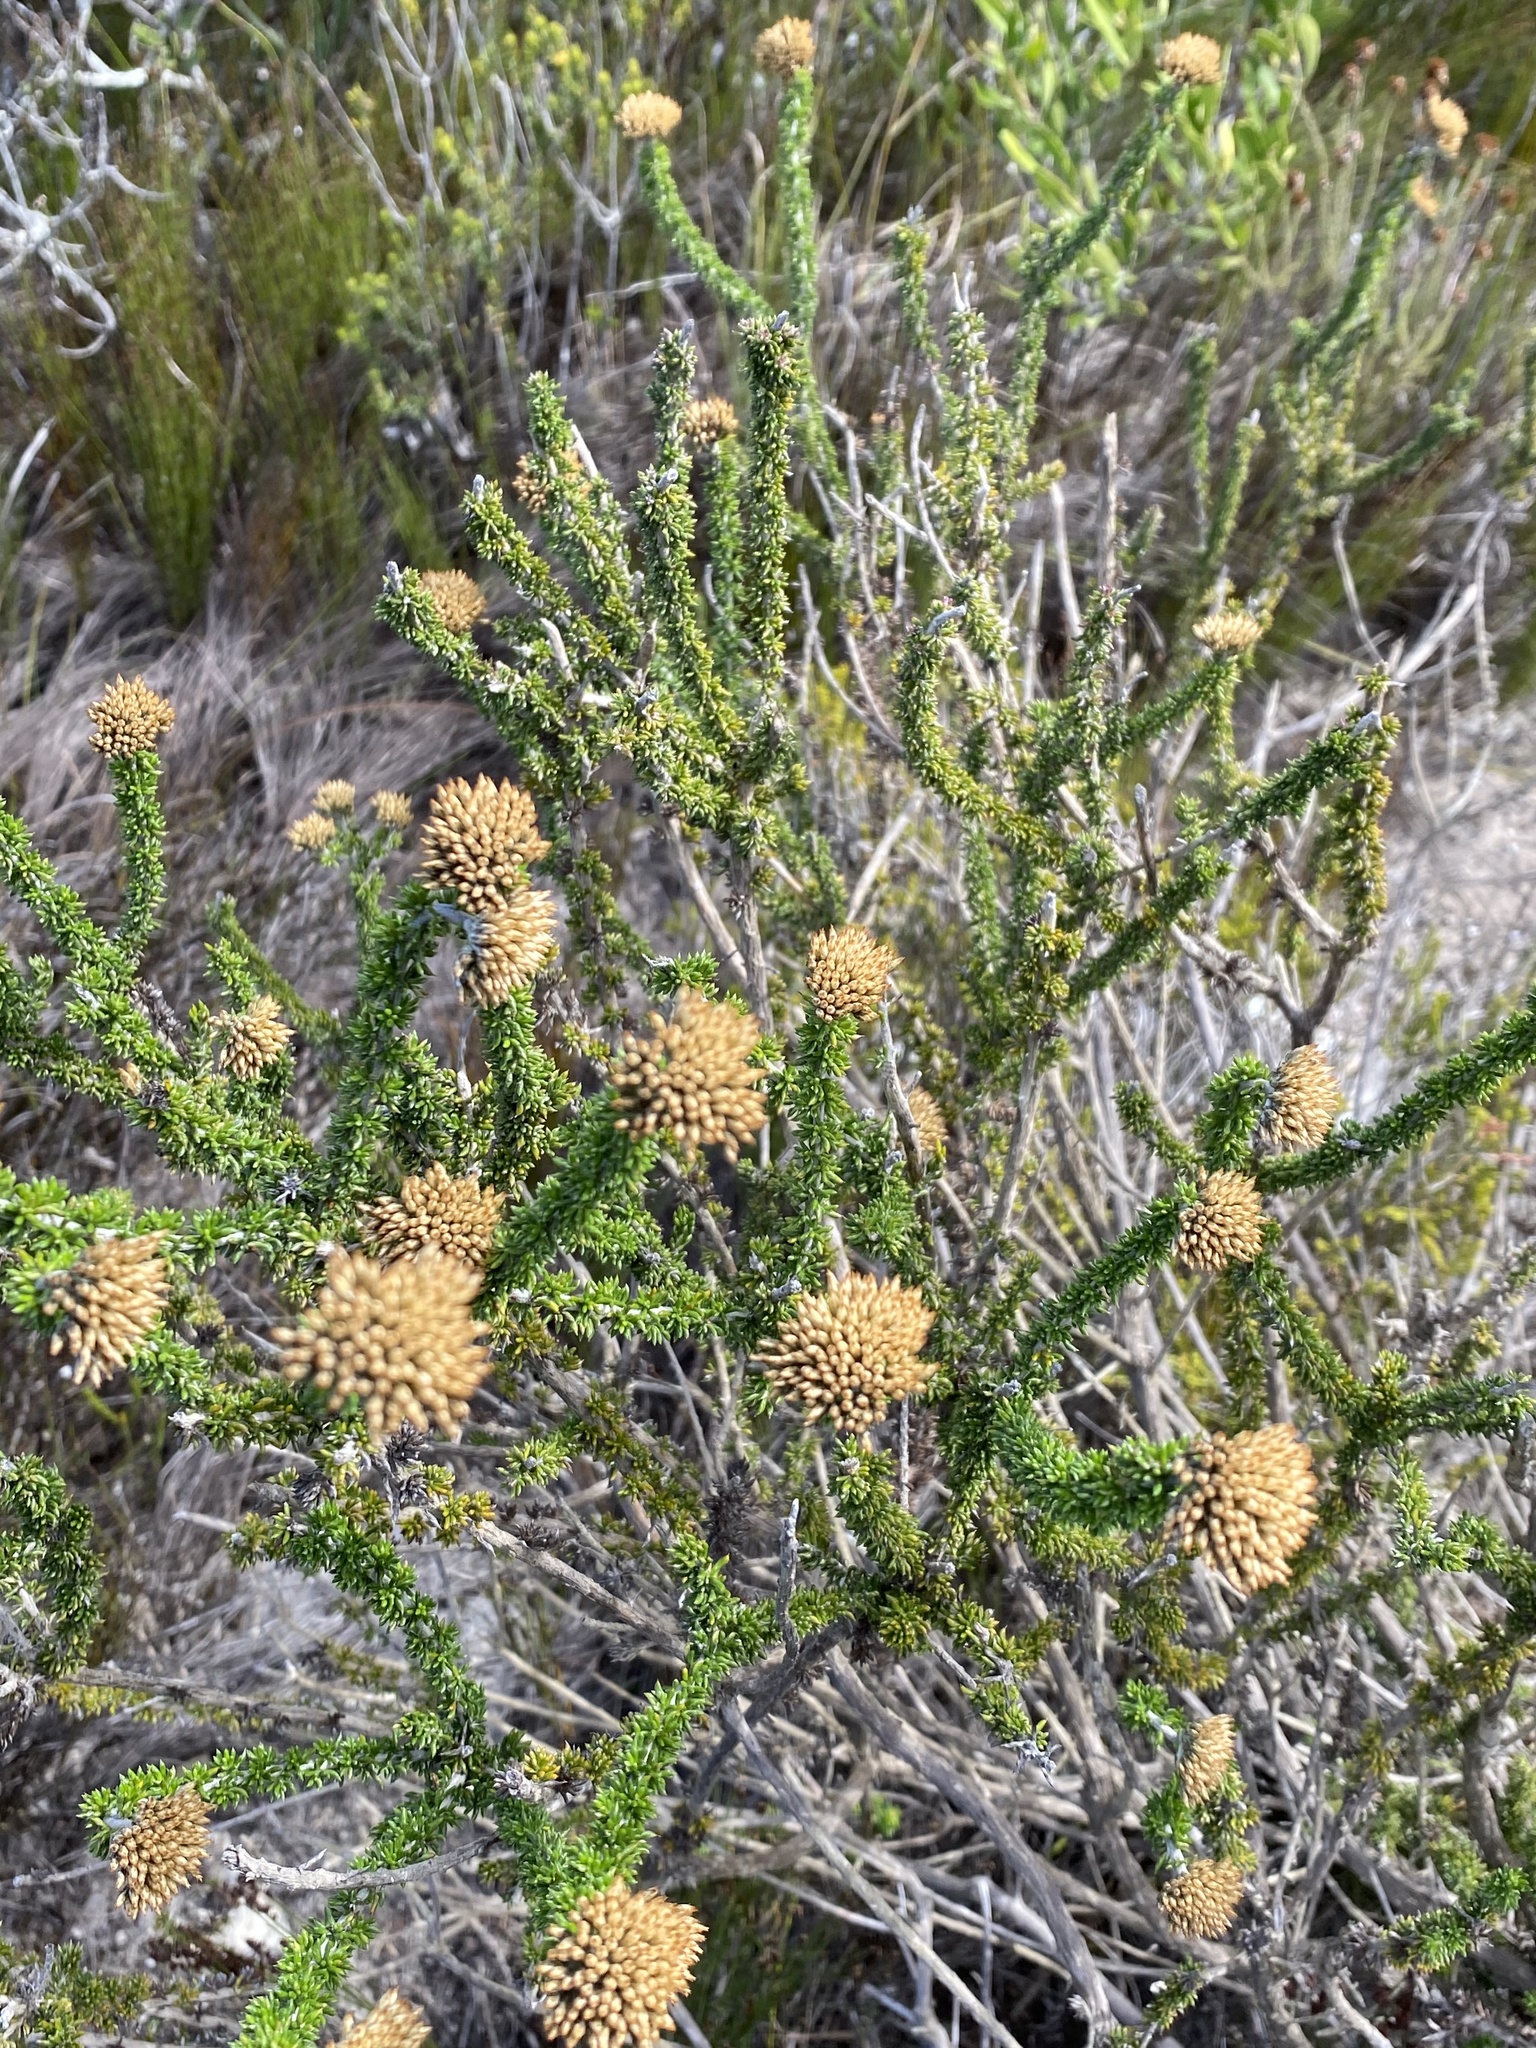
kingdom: Plantae
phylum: Tracheophyta
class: Magnoliopsida
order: Asterales
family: Asteraceae
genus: Metalasia
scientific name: Metalasia luteola
